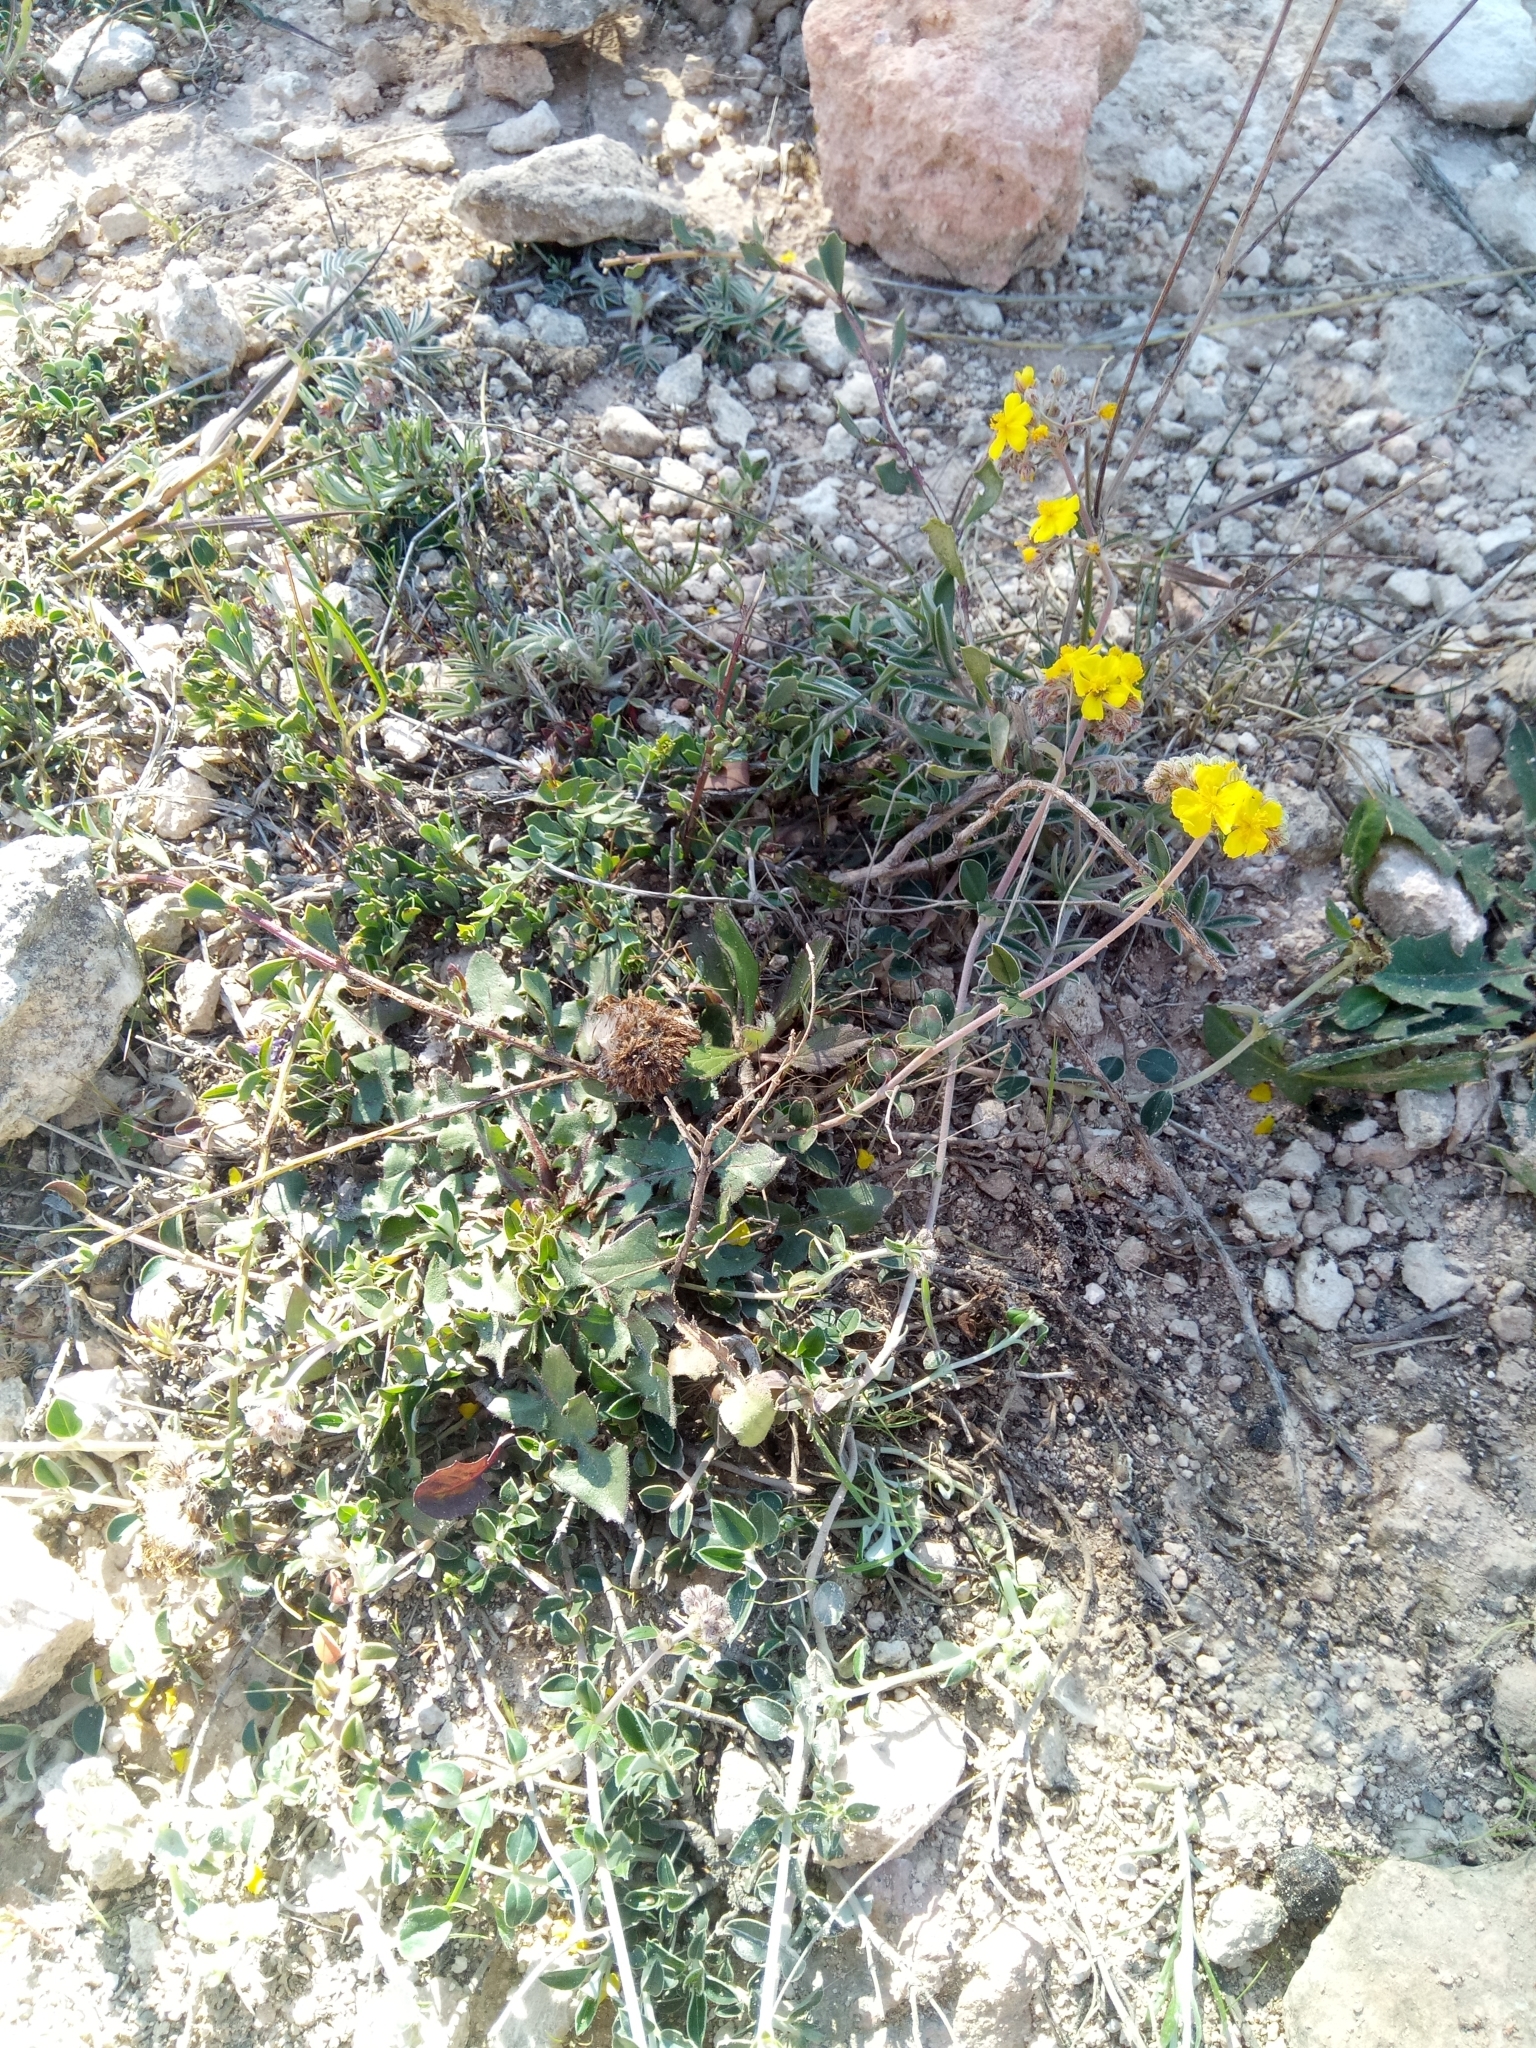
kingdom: Plantae
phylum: Tracheophyta
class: Magnoliopsida
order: Malvales
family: Cistaceae
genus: Helianthemum
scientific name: Helianthemum cinereum
